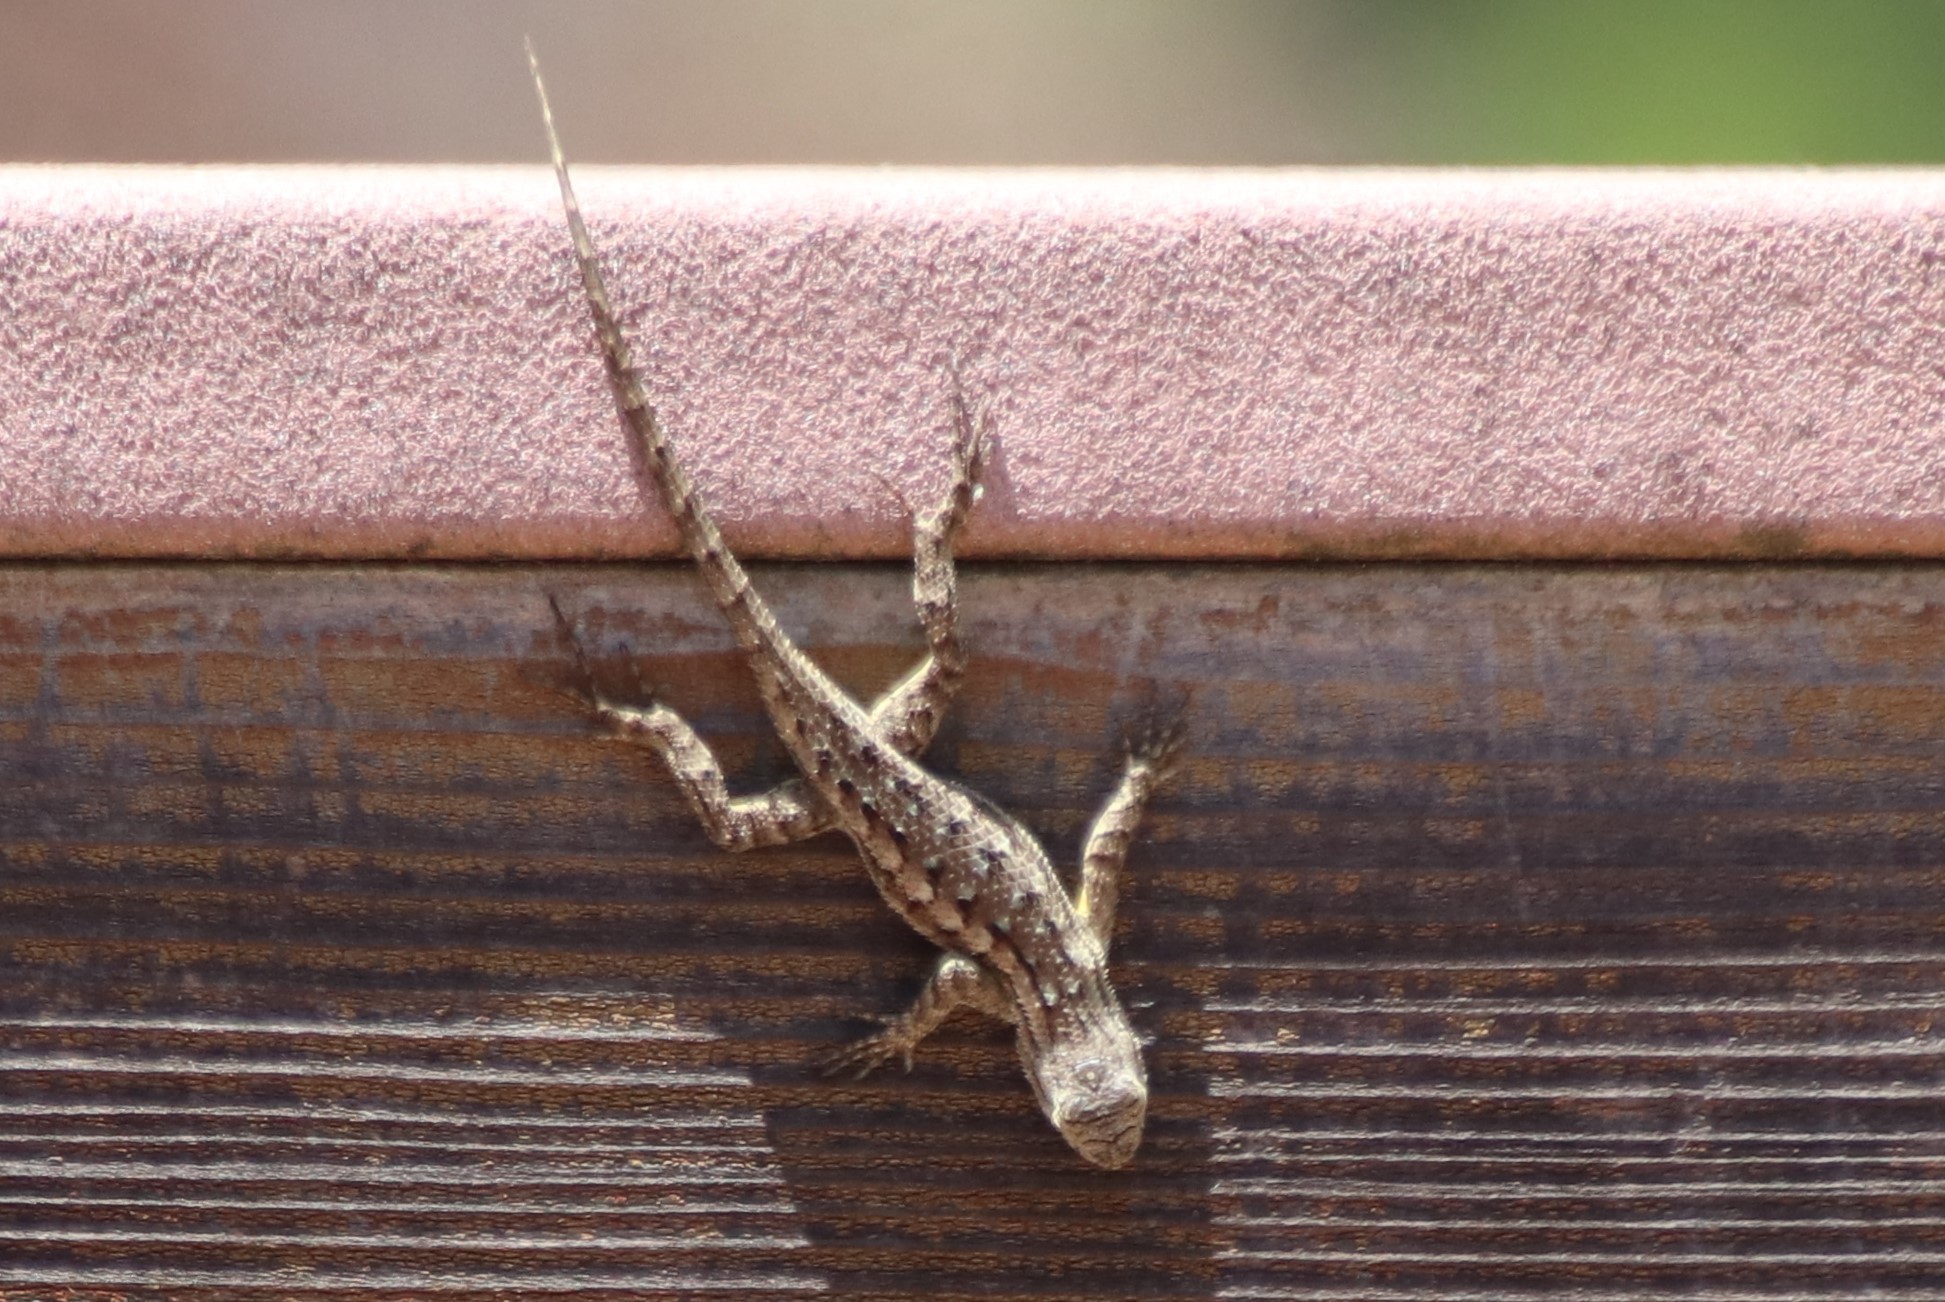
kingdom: Animalia
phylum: Chordata
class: Squamata
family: Phrynosomatidae
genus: Sceloporus
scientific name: Sceloporus occidentalis
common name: Western fence lizard
